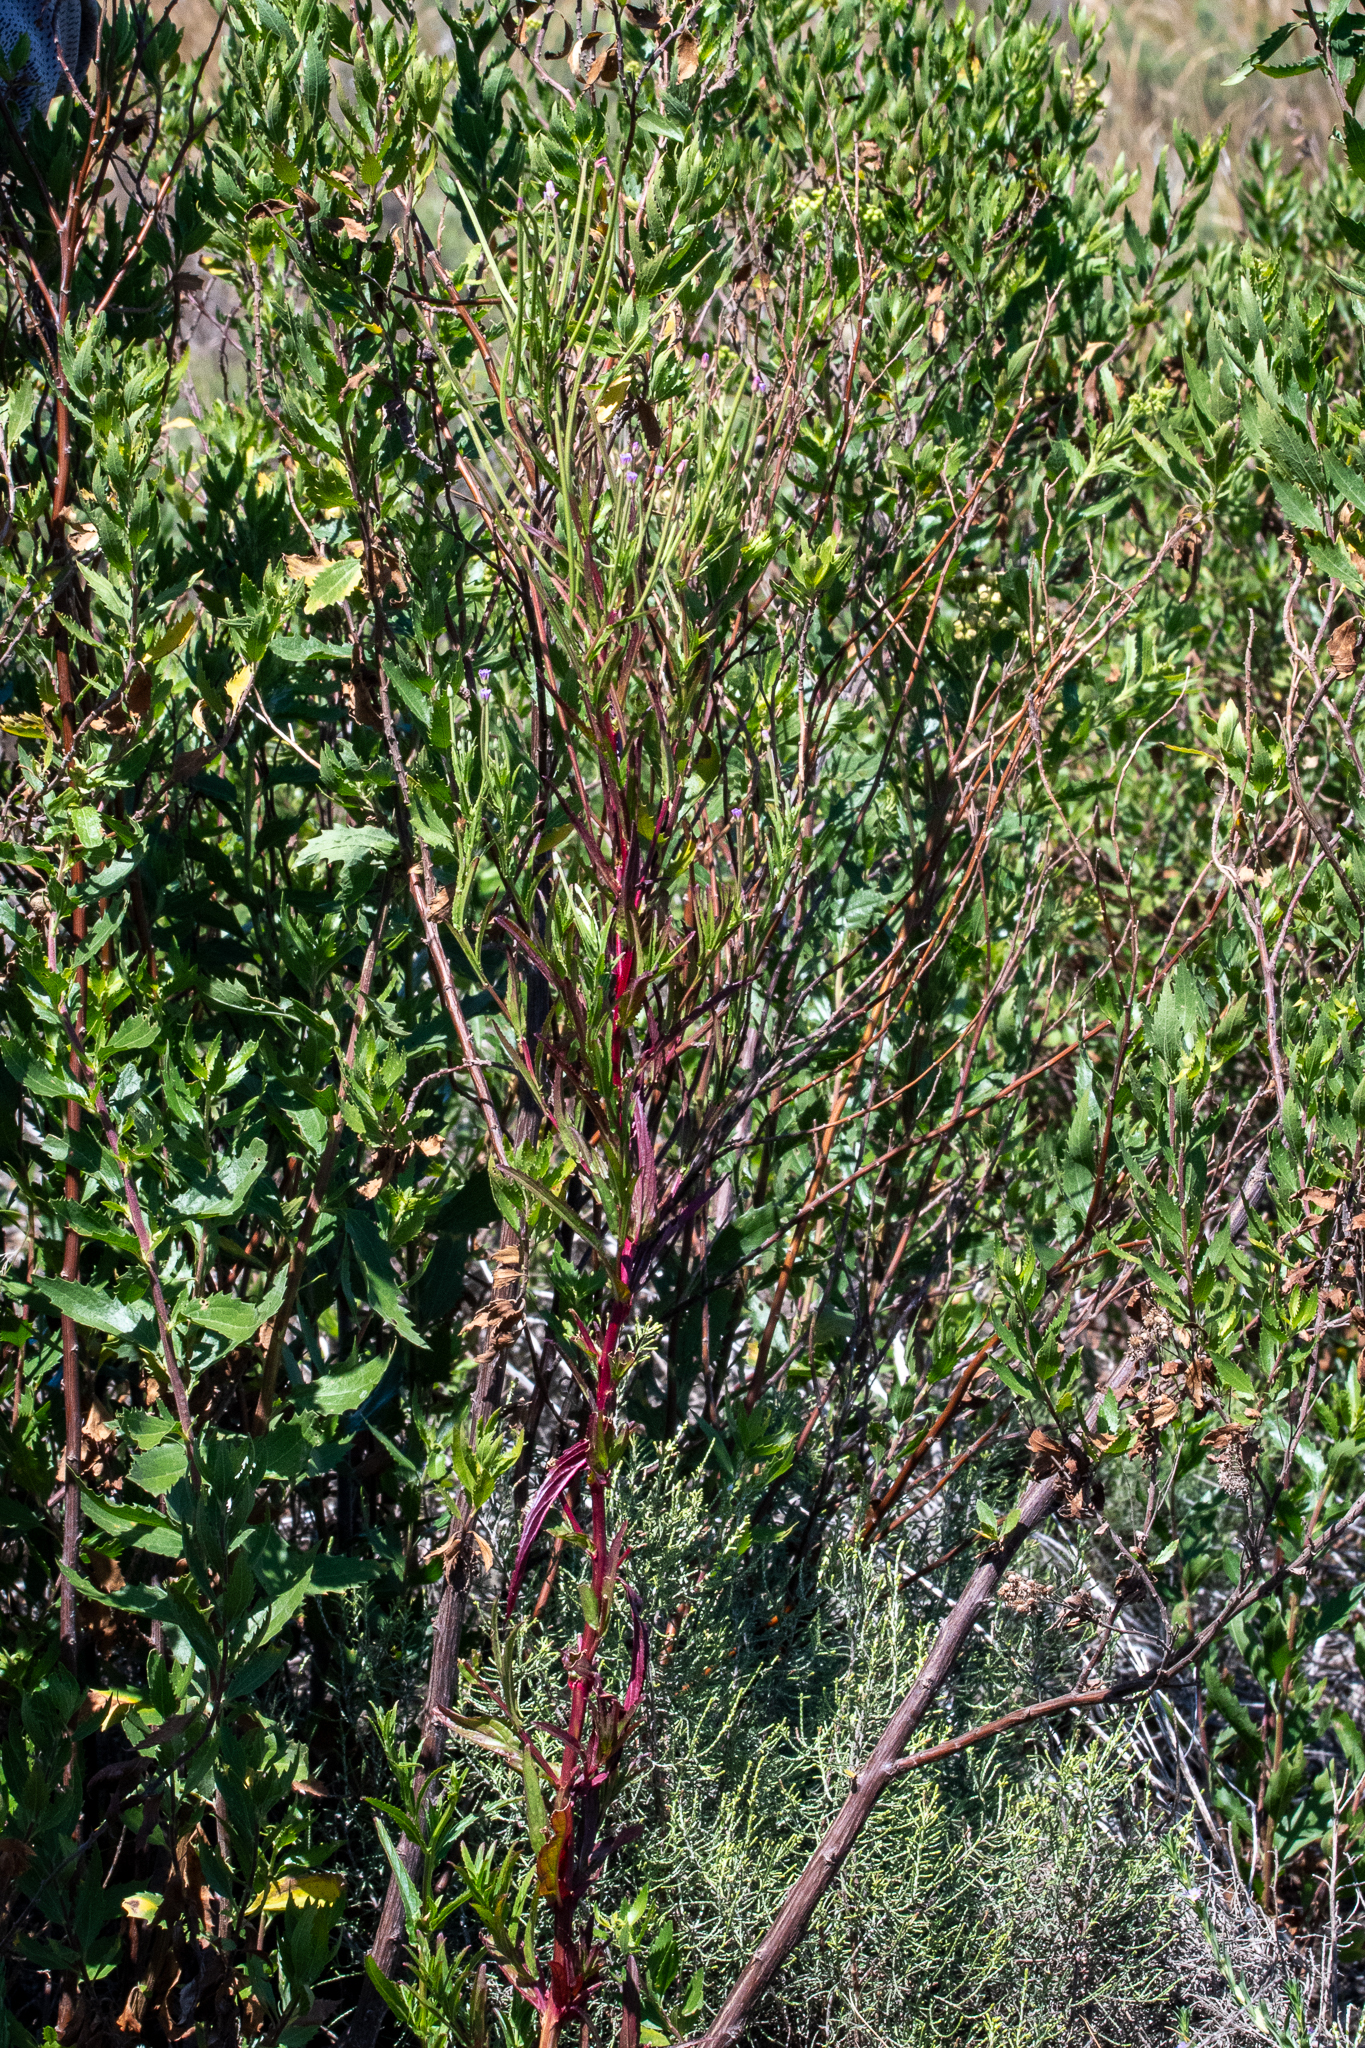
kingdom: Plantae
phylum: Tracheophyta
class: Magnoliopsida
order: Myrtales
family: Onagraceae
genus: Epilobium
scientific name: Epilobium tetragonum
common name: Square-stemmed willowherb
